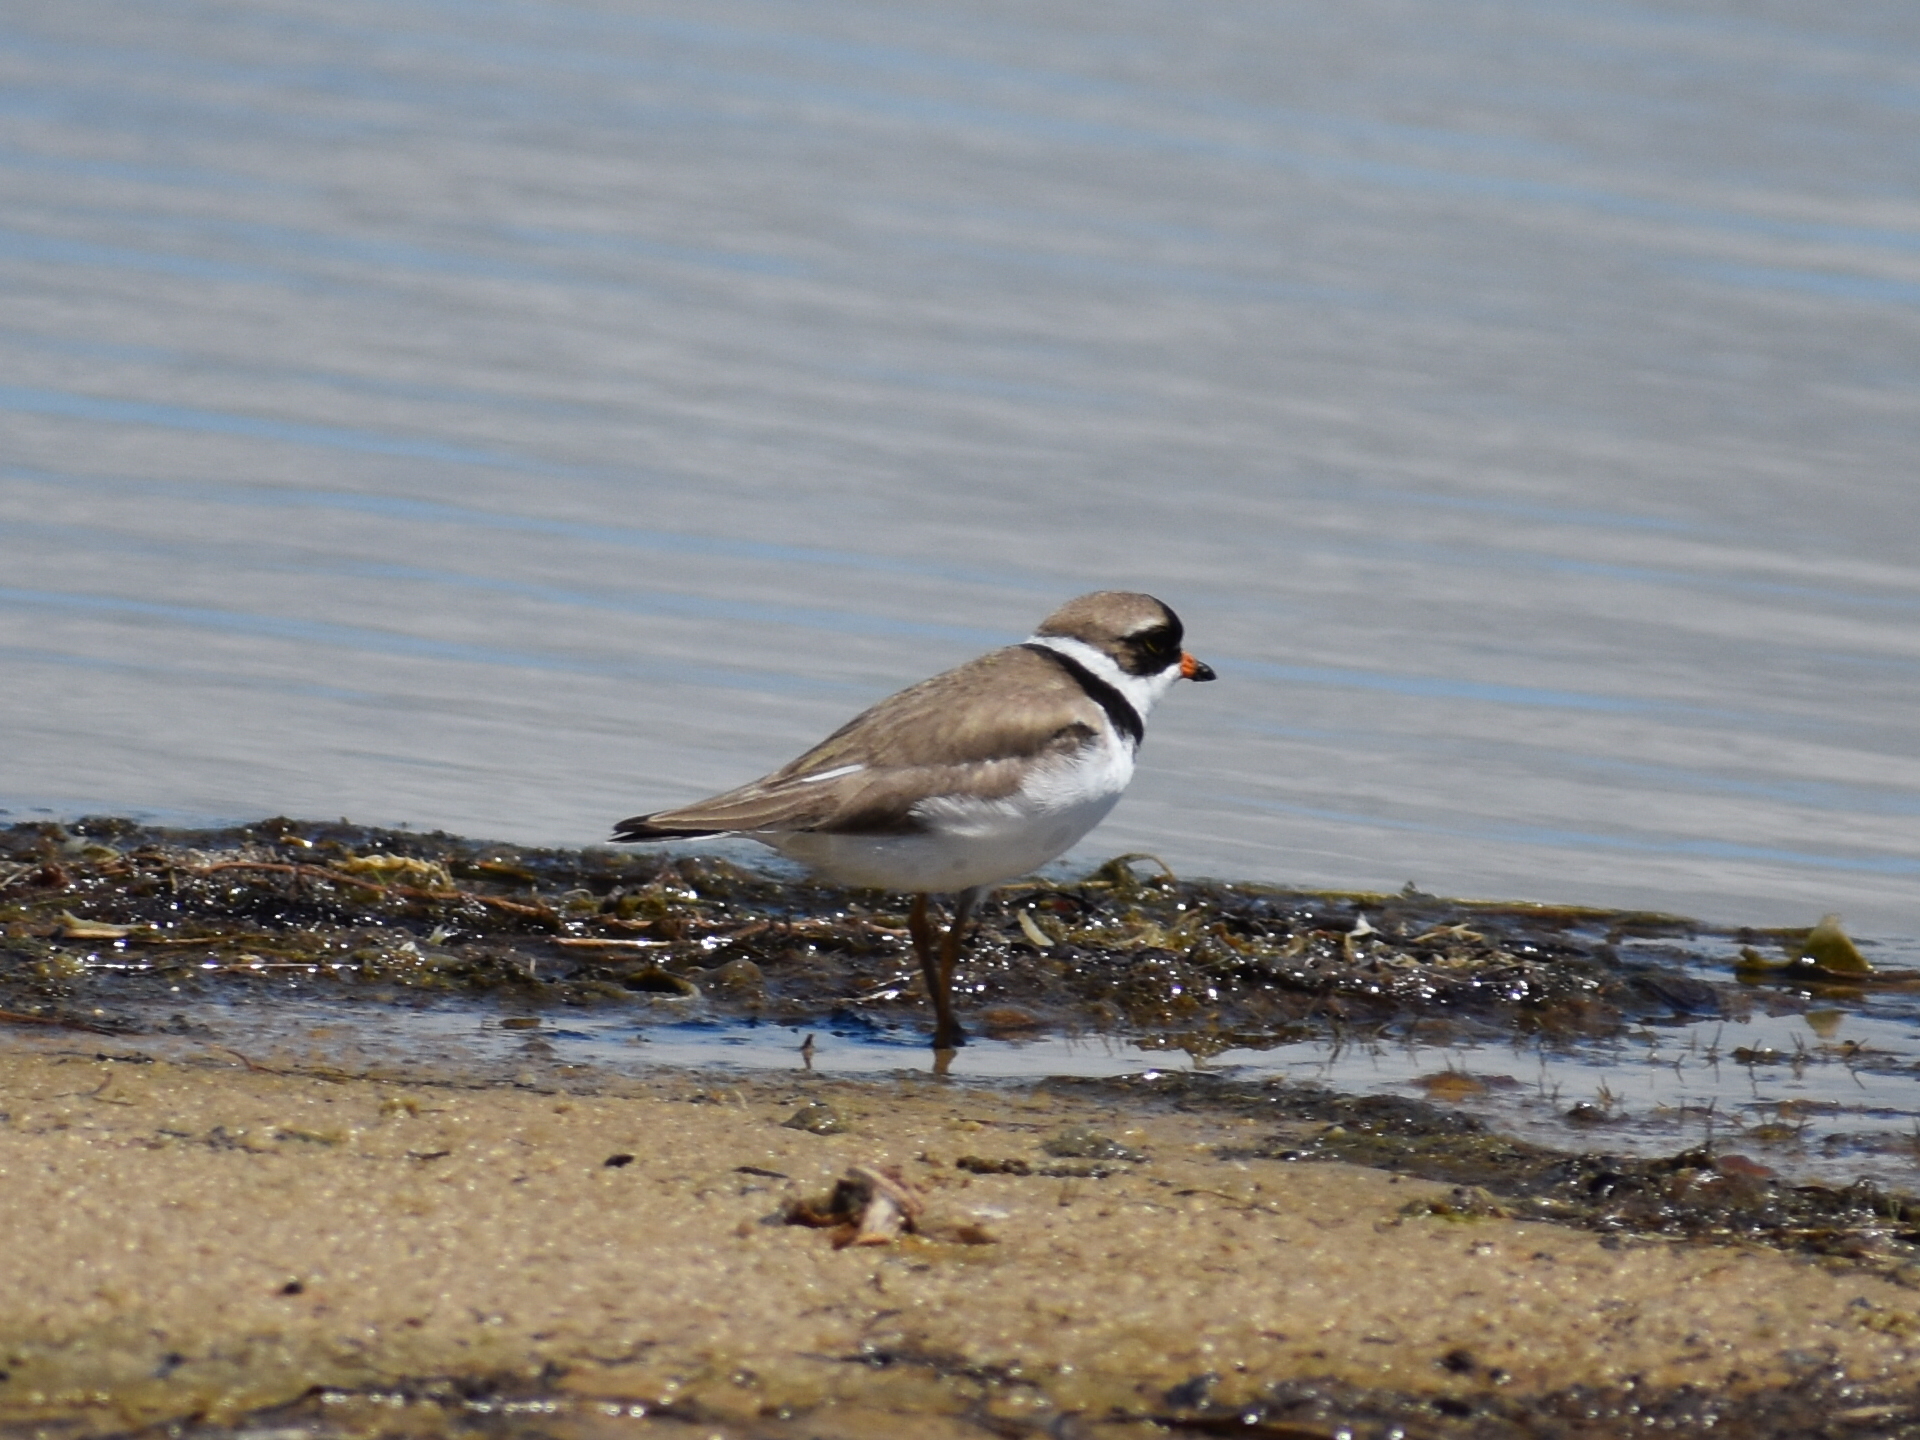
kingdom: Animalia
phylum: Chordata
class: Aves
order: Charadriiformes
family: Charadriidae
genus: Charadrius
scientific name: Charadrius semipalmatus
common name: Semipalmated plover
